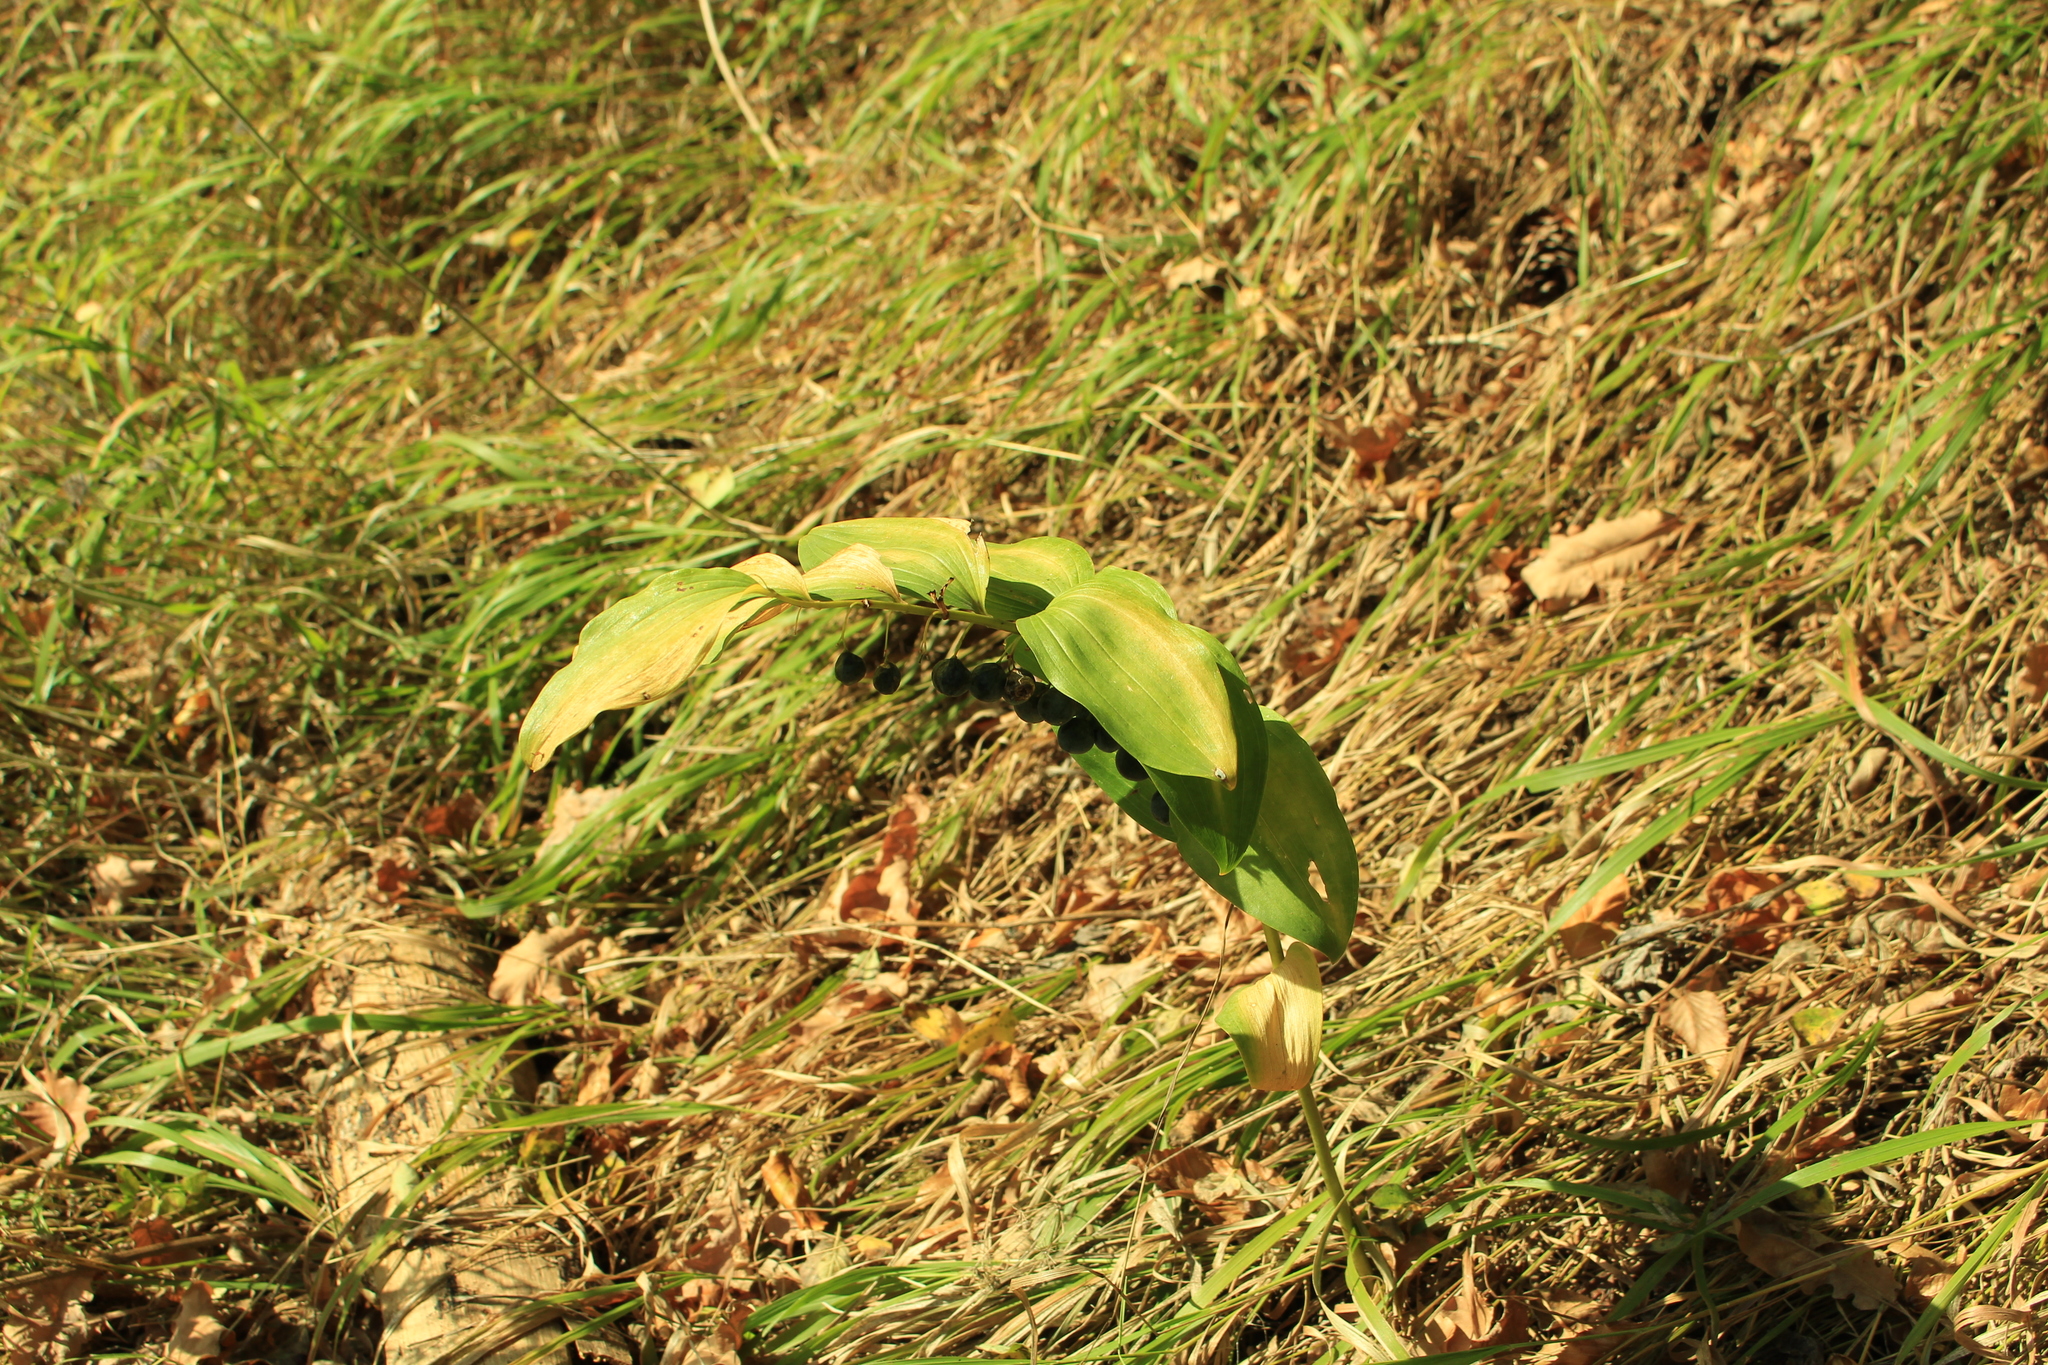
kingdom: Plantae
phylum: Tracheophyta
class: Liliopsida
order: Asparagales
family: Asparagaceae
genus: Polygonatum
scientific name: Polygonatum multiflorum
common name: Solomon's-seal
